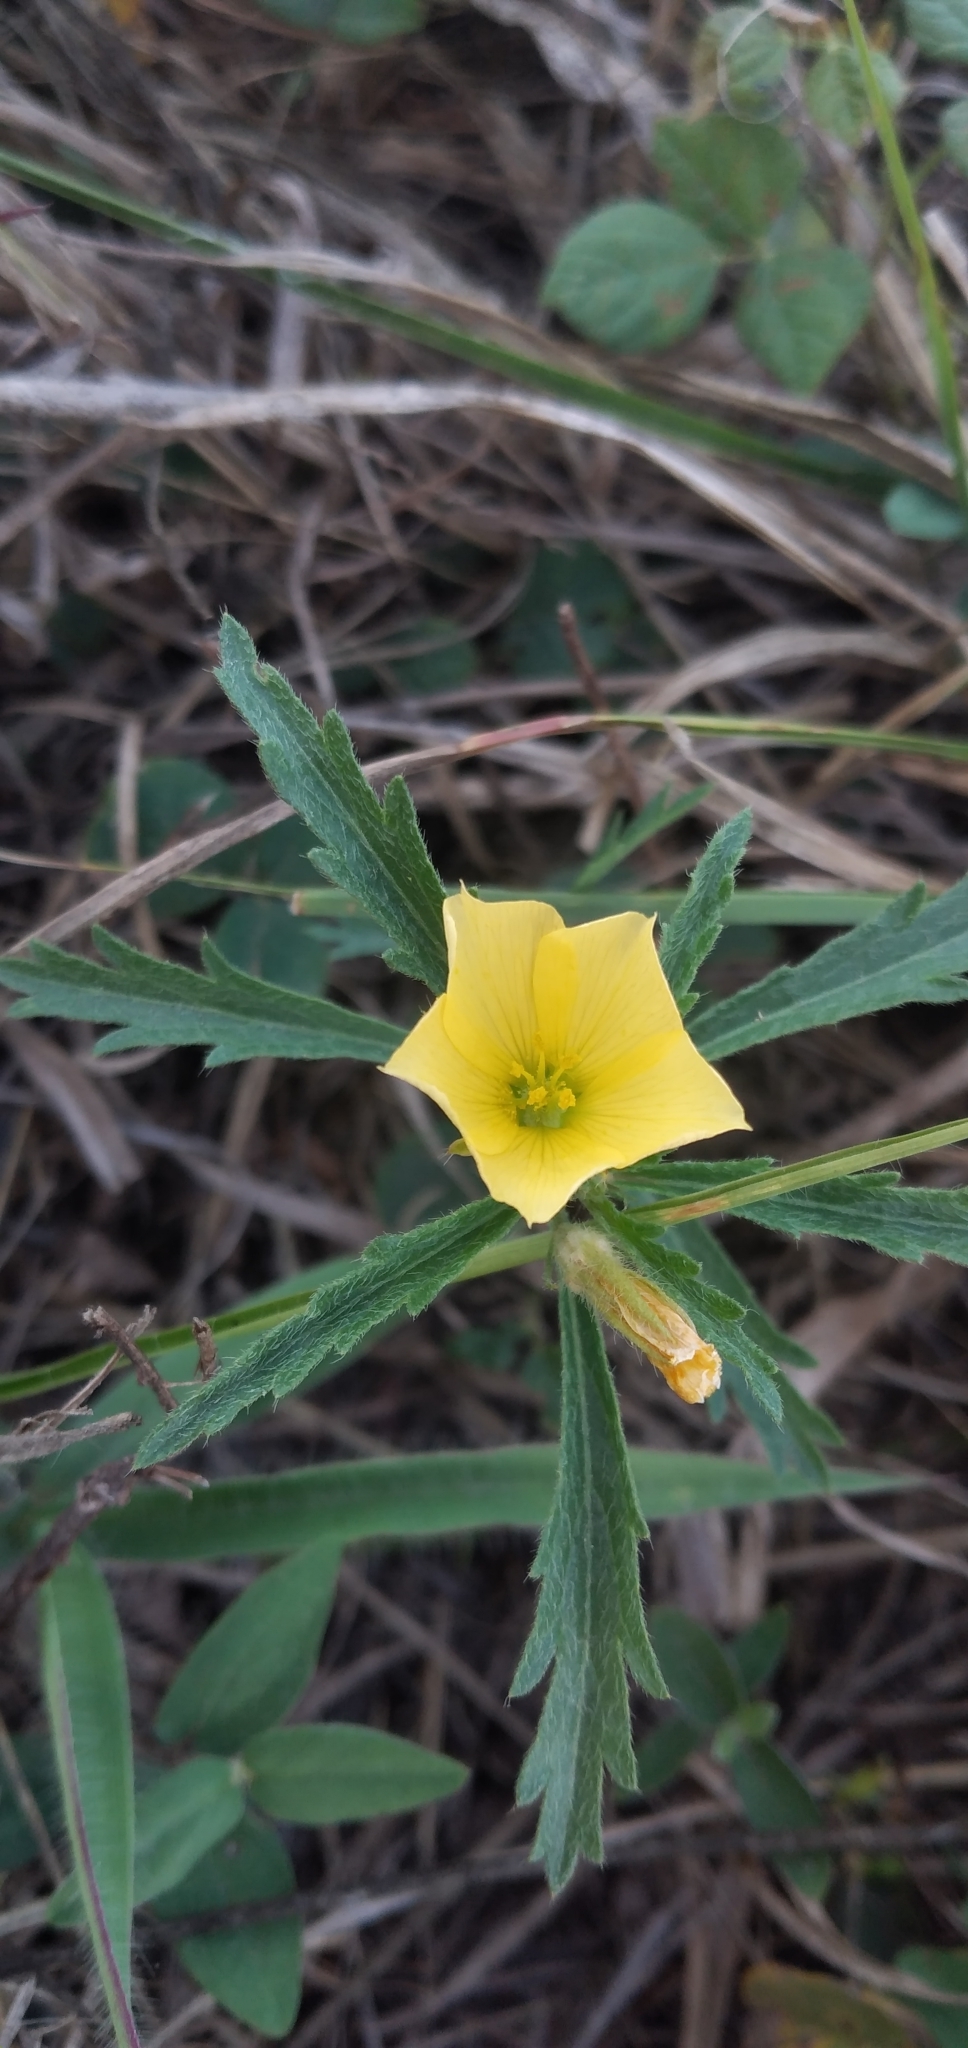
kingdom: Plantae
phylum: Tracheophyta
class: Magnoliopsida
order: Malpighiales
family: Turneraceae
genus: Turnera
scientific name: Turnera sidoides
